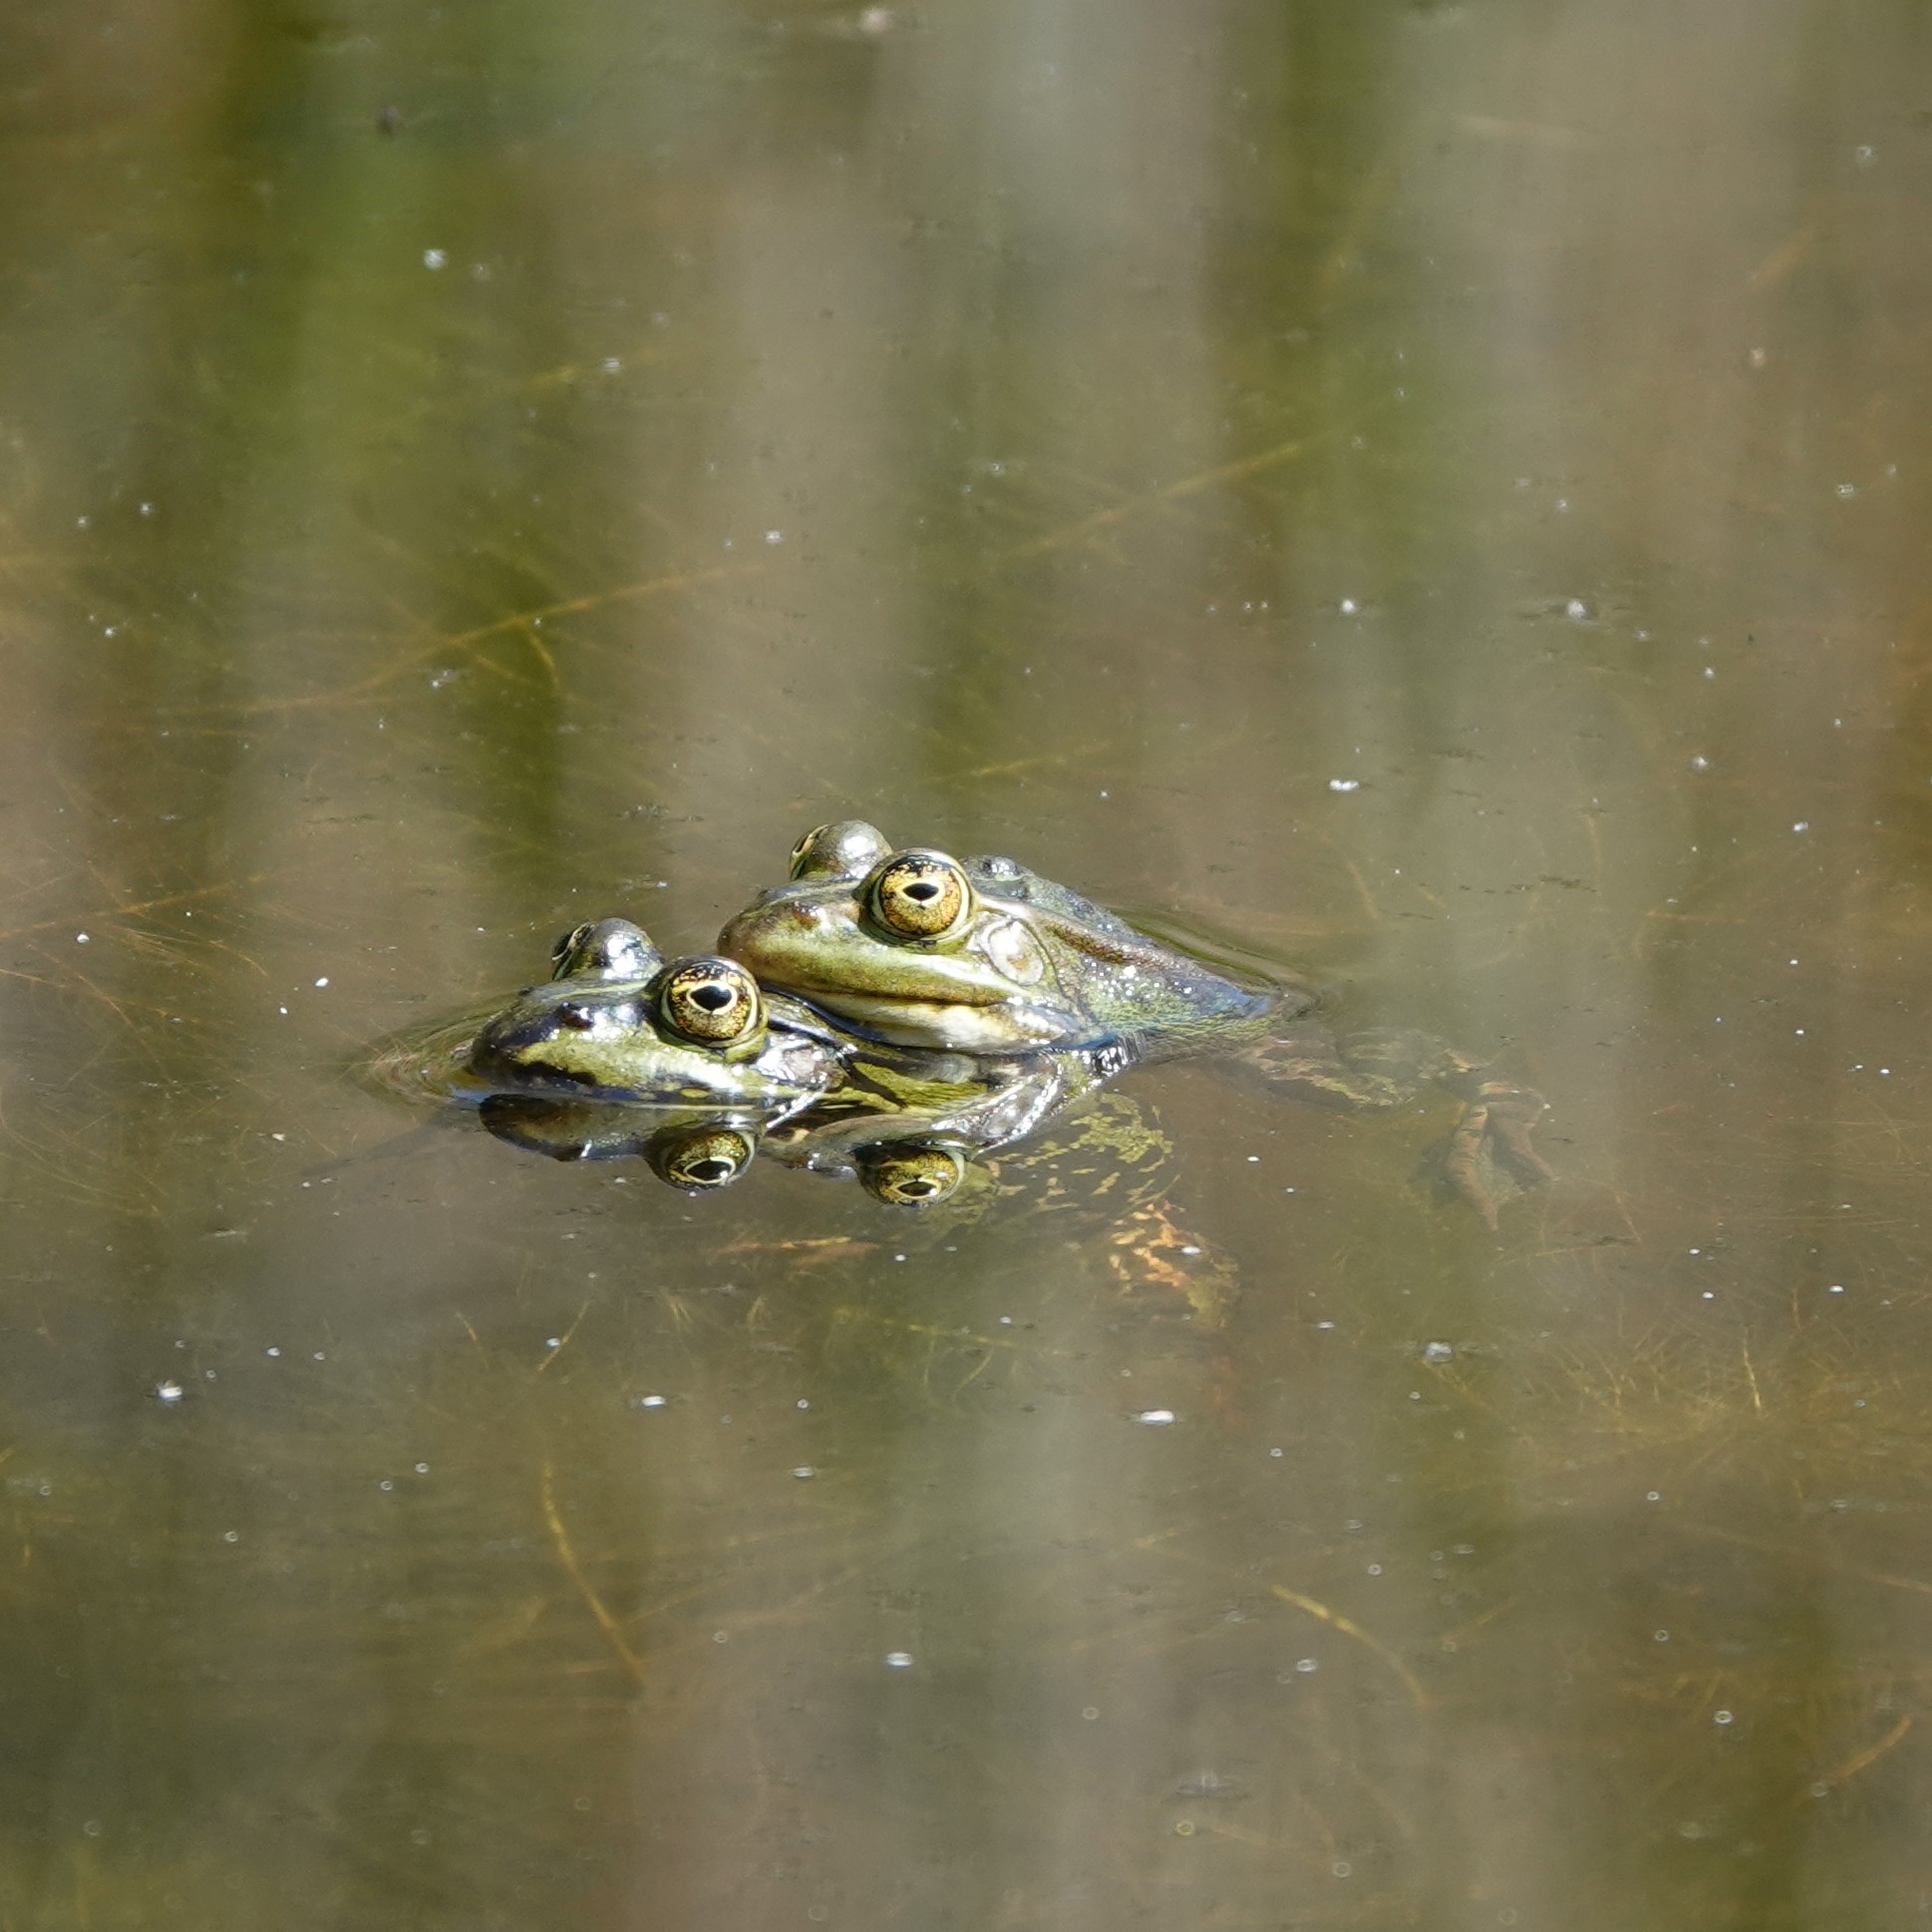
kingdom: Animalia
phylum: Chordata
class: Amphibia
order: Anura
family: Ranidae
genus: Pelophylax
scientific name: Pelophylax lessonae
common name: Pool frog
